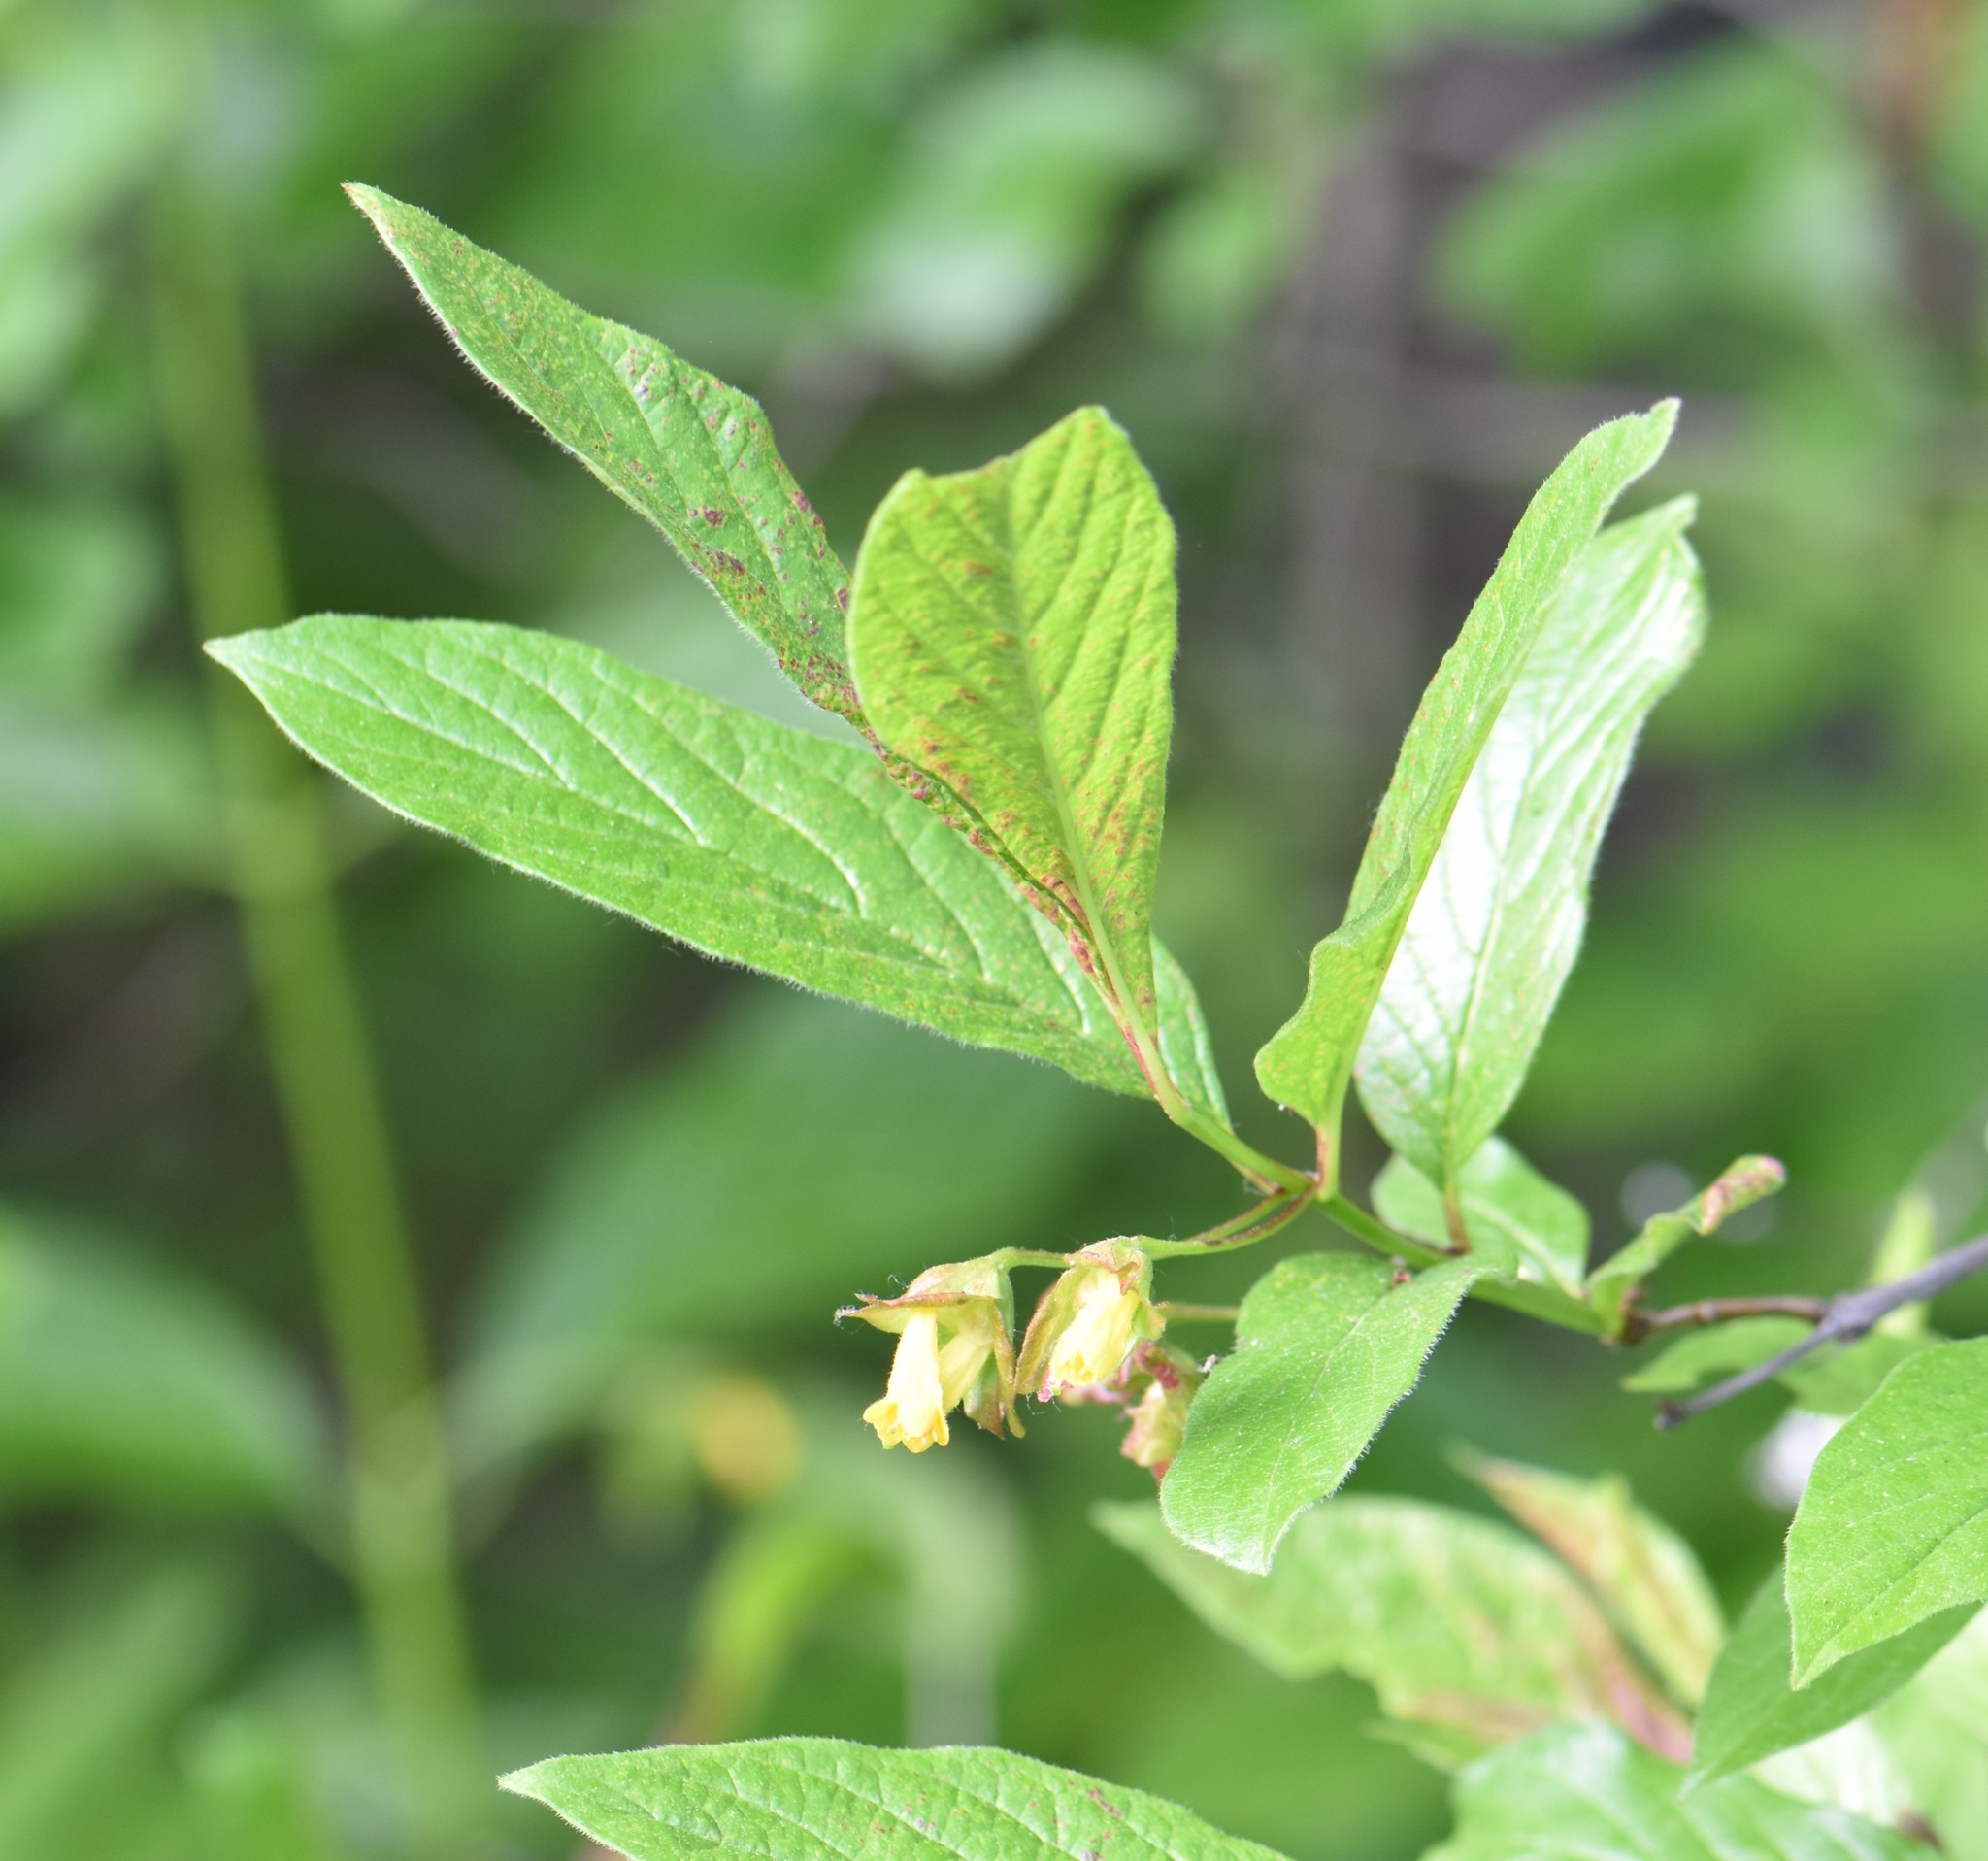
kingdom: Plantae
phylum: Tracheophyta
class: Magnoliopsida
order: Dipsacales
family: Caprifoliaceae
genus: Lonicera
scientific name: Lonicera involucrata
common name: Californian honeysuckle
